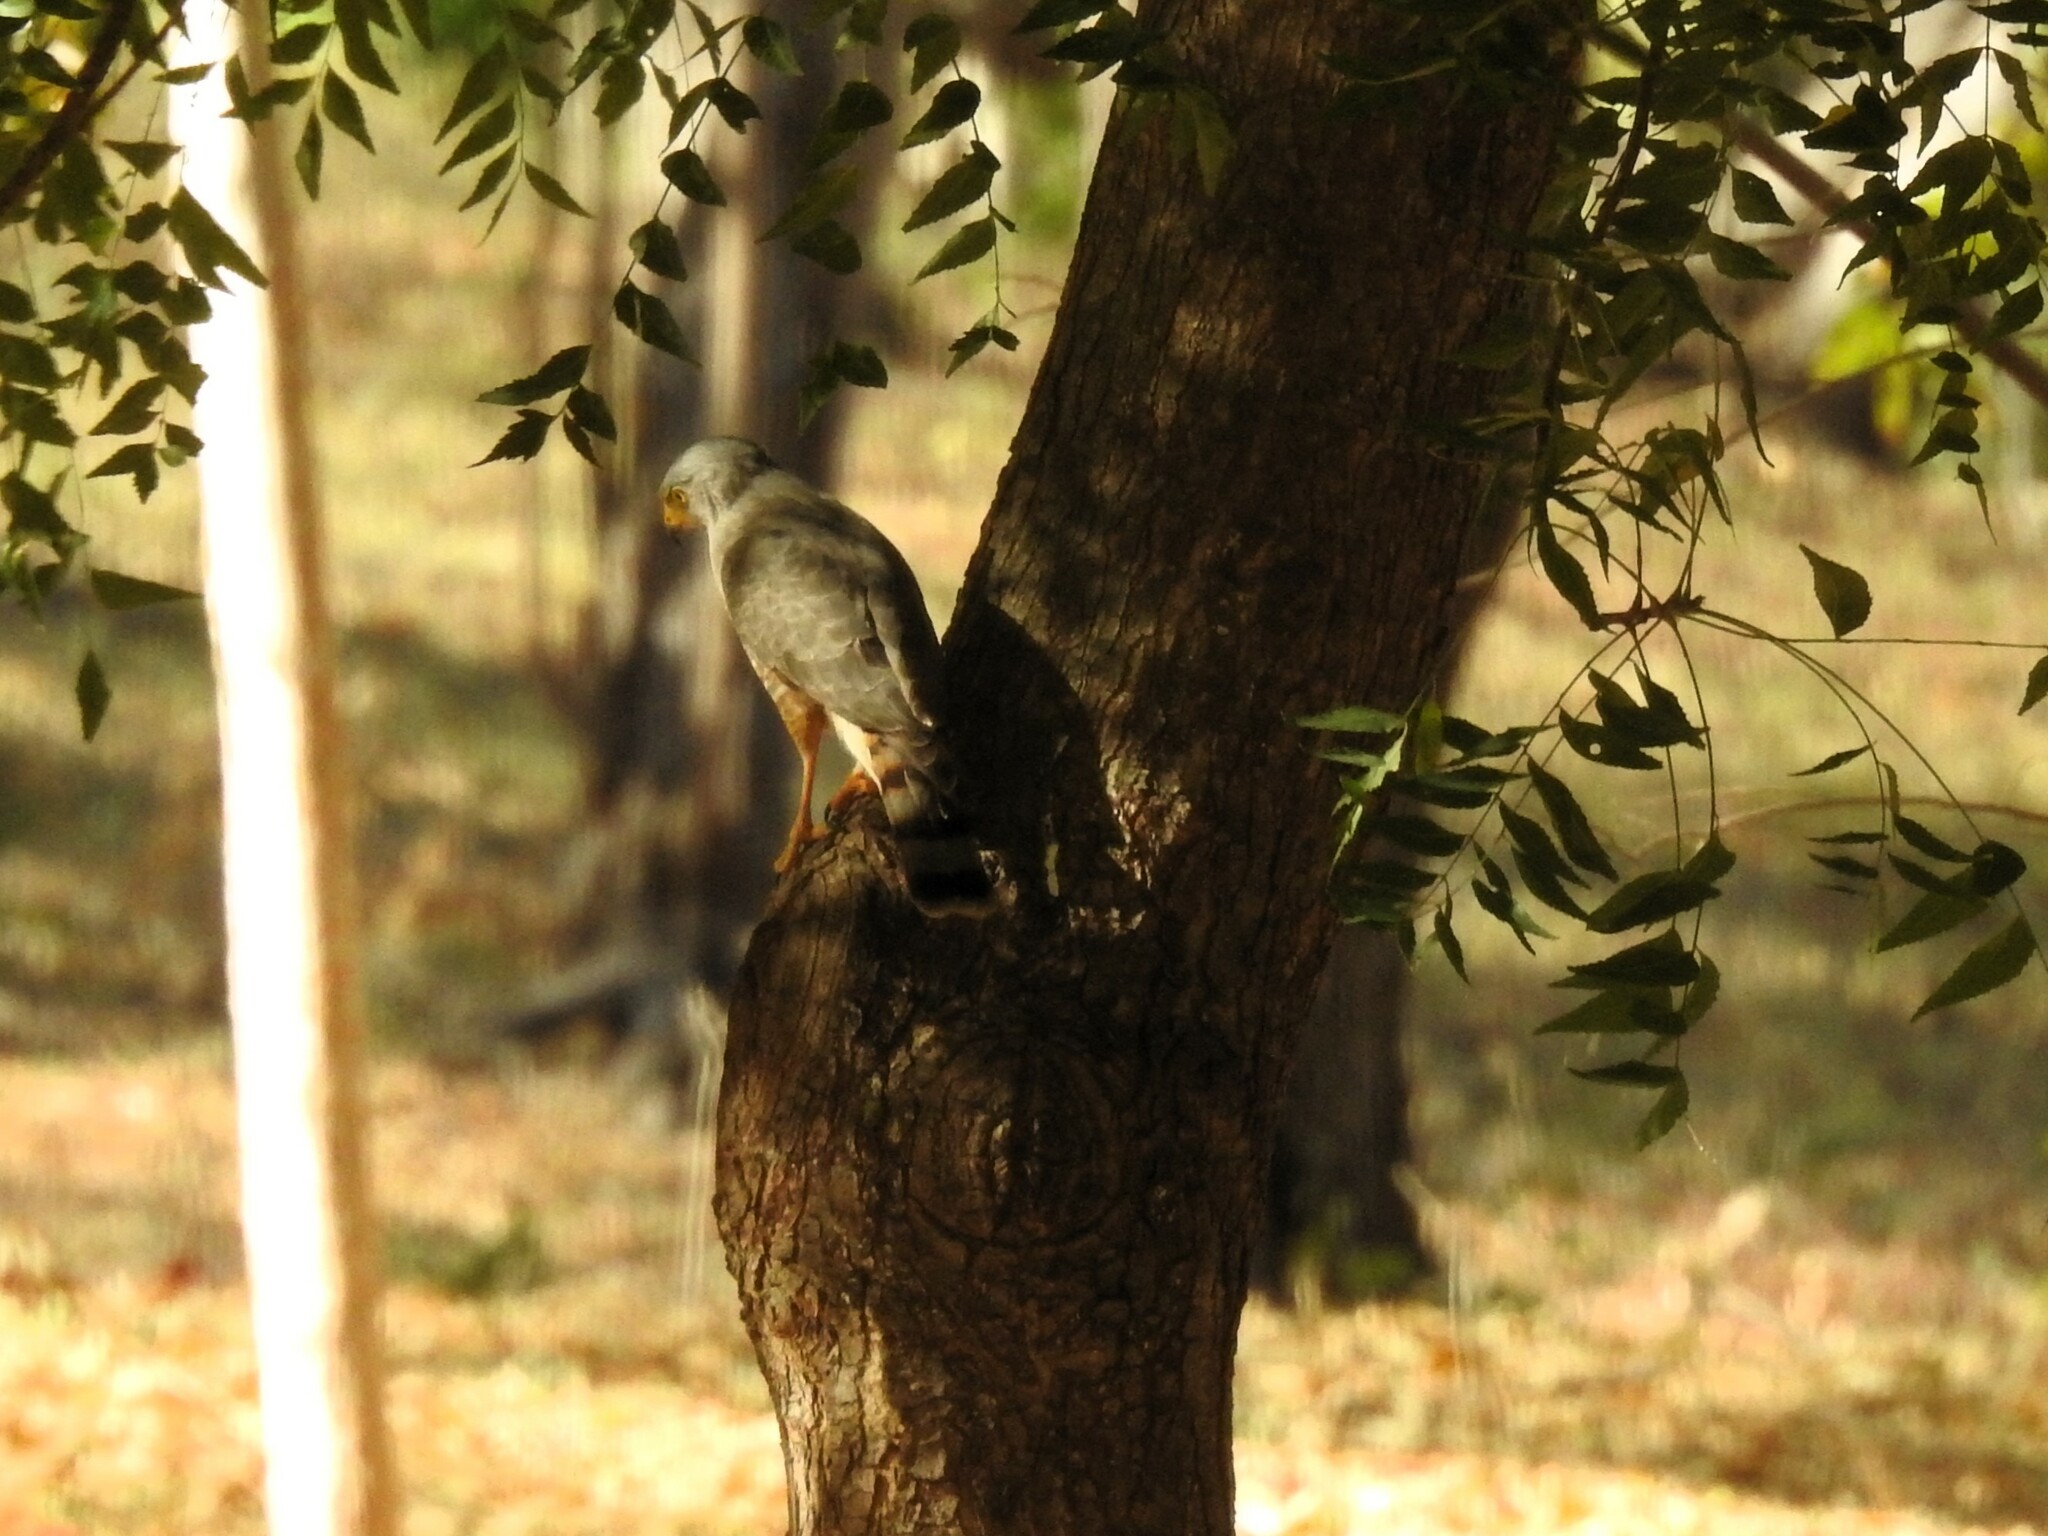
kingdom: Animalia
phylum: Chordata
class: Aves
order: Accipitriformes
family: Accipitridae
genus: Rupornis
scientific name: Rupornis magnirostris
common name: Roadside hawk
